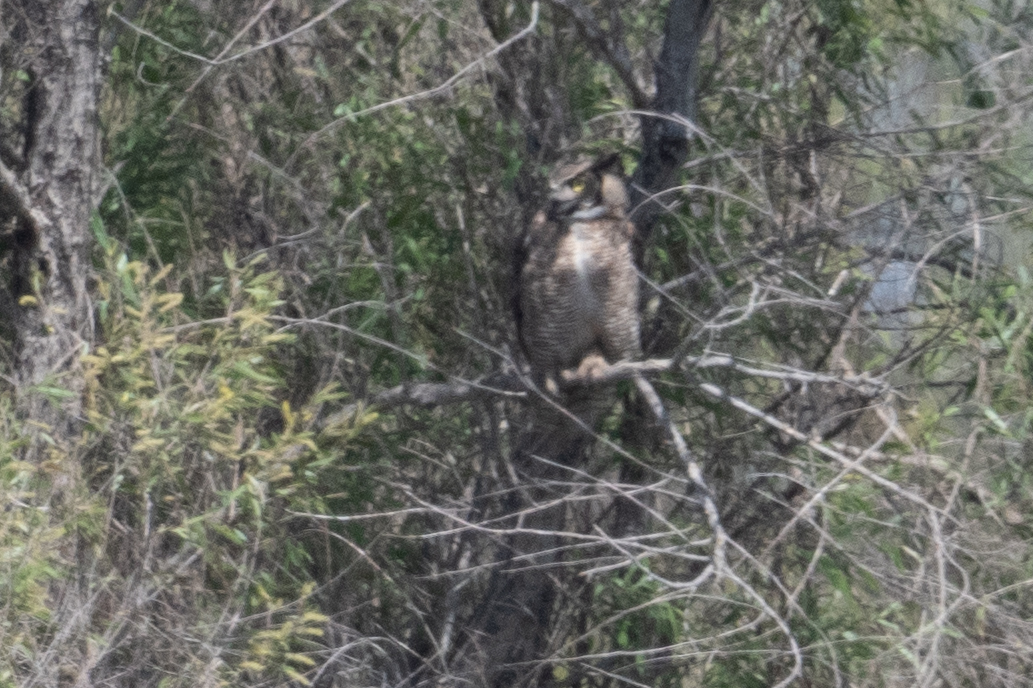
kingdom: Animalia
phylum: Chordata
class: Aves
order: Strigiformes
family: Strigidae
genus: Bubo
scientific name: Bubo virginianus
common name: Great horned owl
